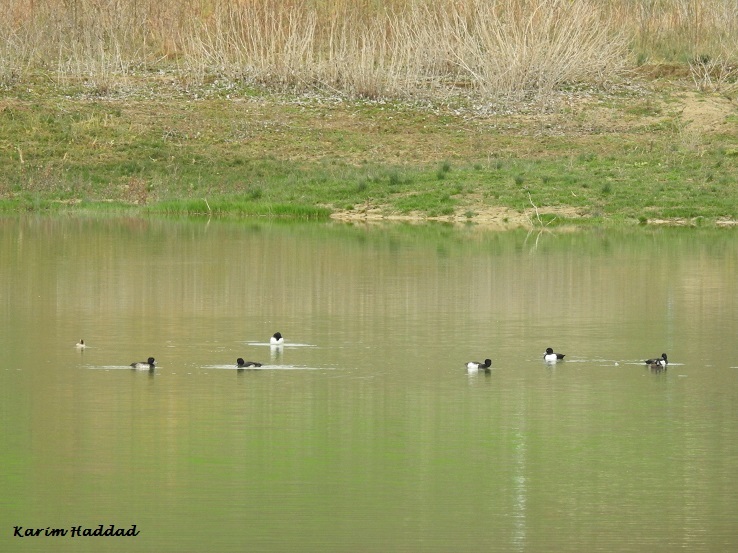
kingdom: Animalia
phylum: Chordata
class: Aves
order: Anseriformes
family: Anatidae
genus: Aythya
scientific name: Aythya fuligula
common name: Tufted duck
